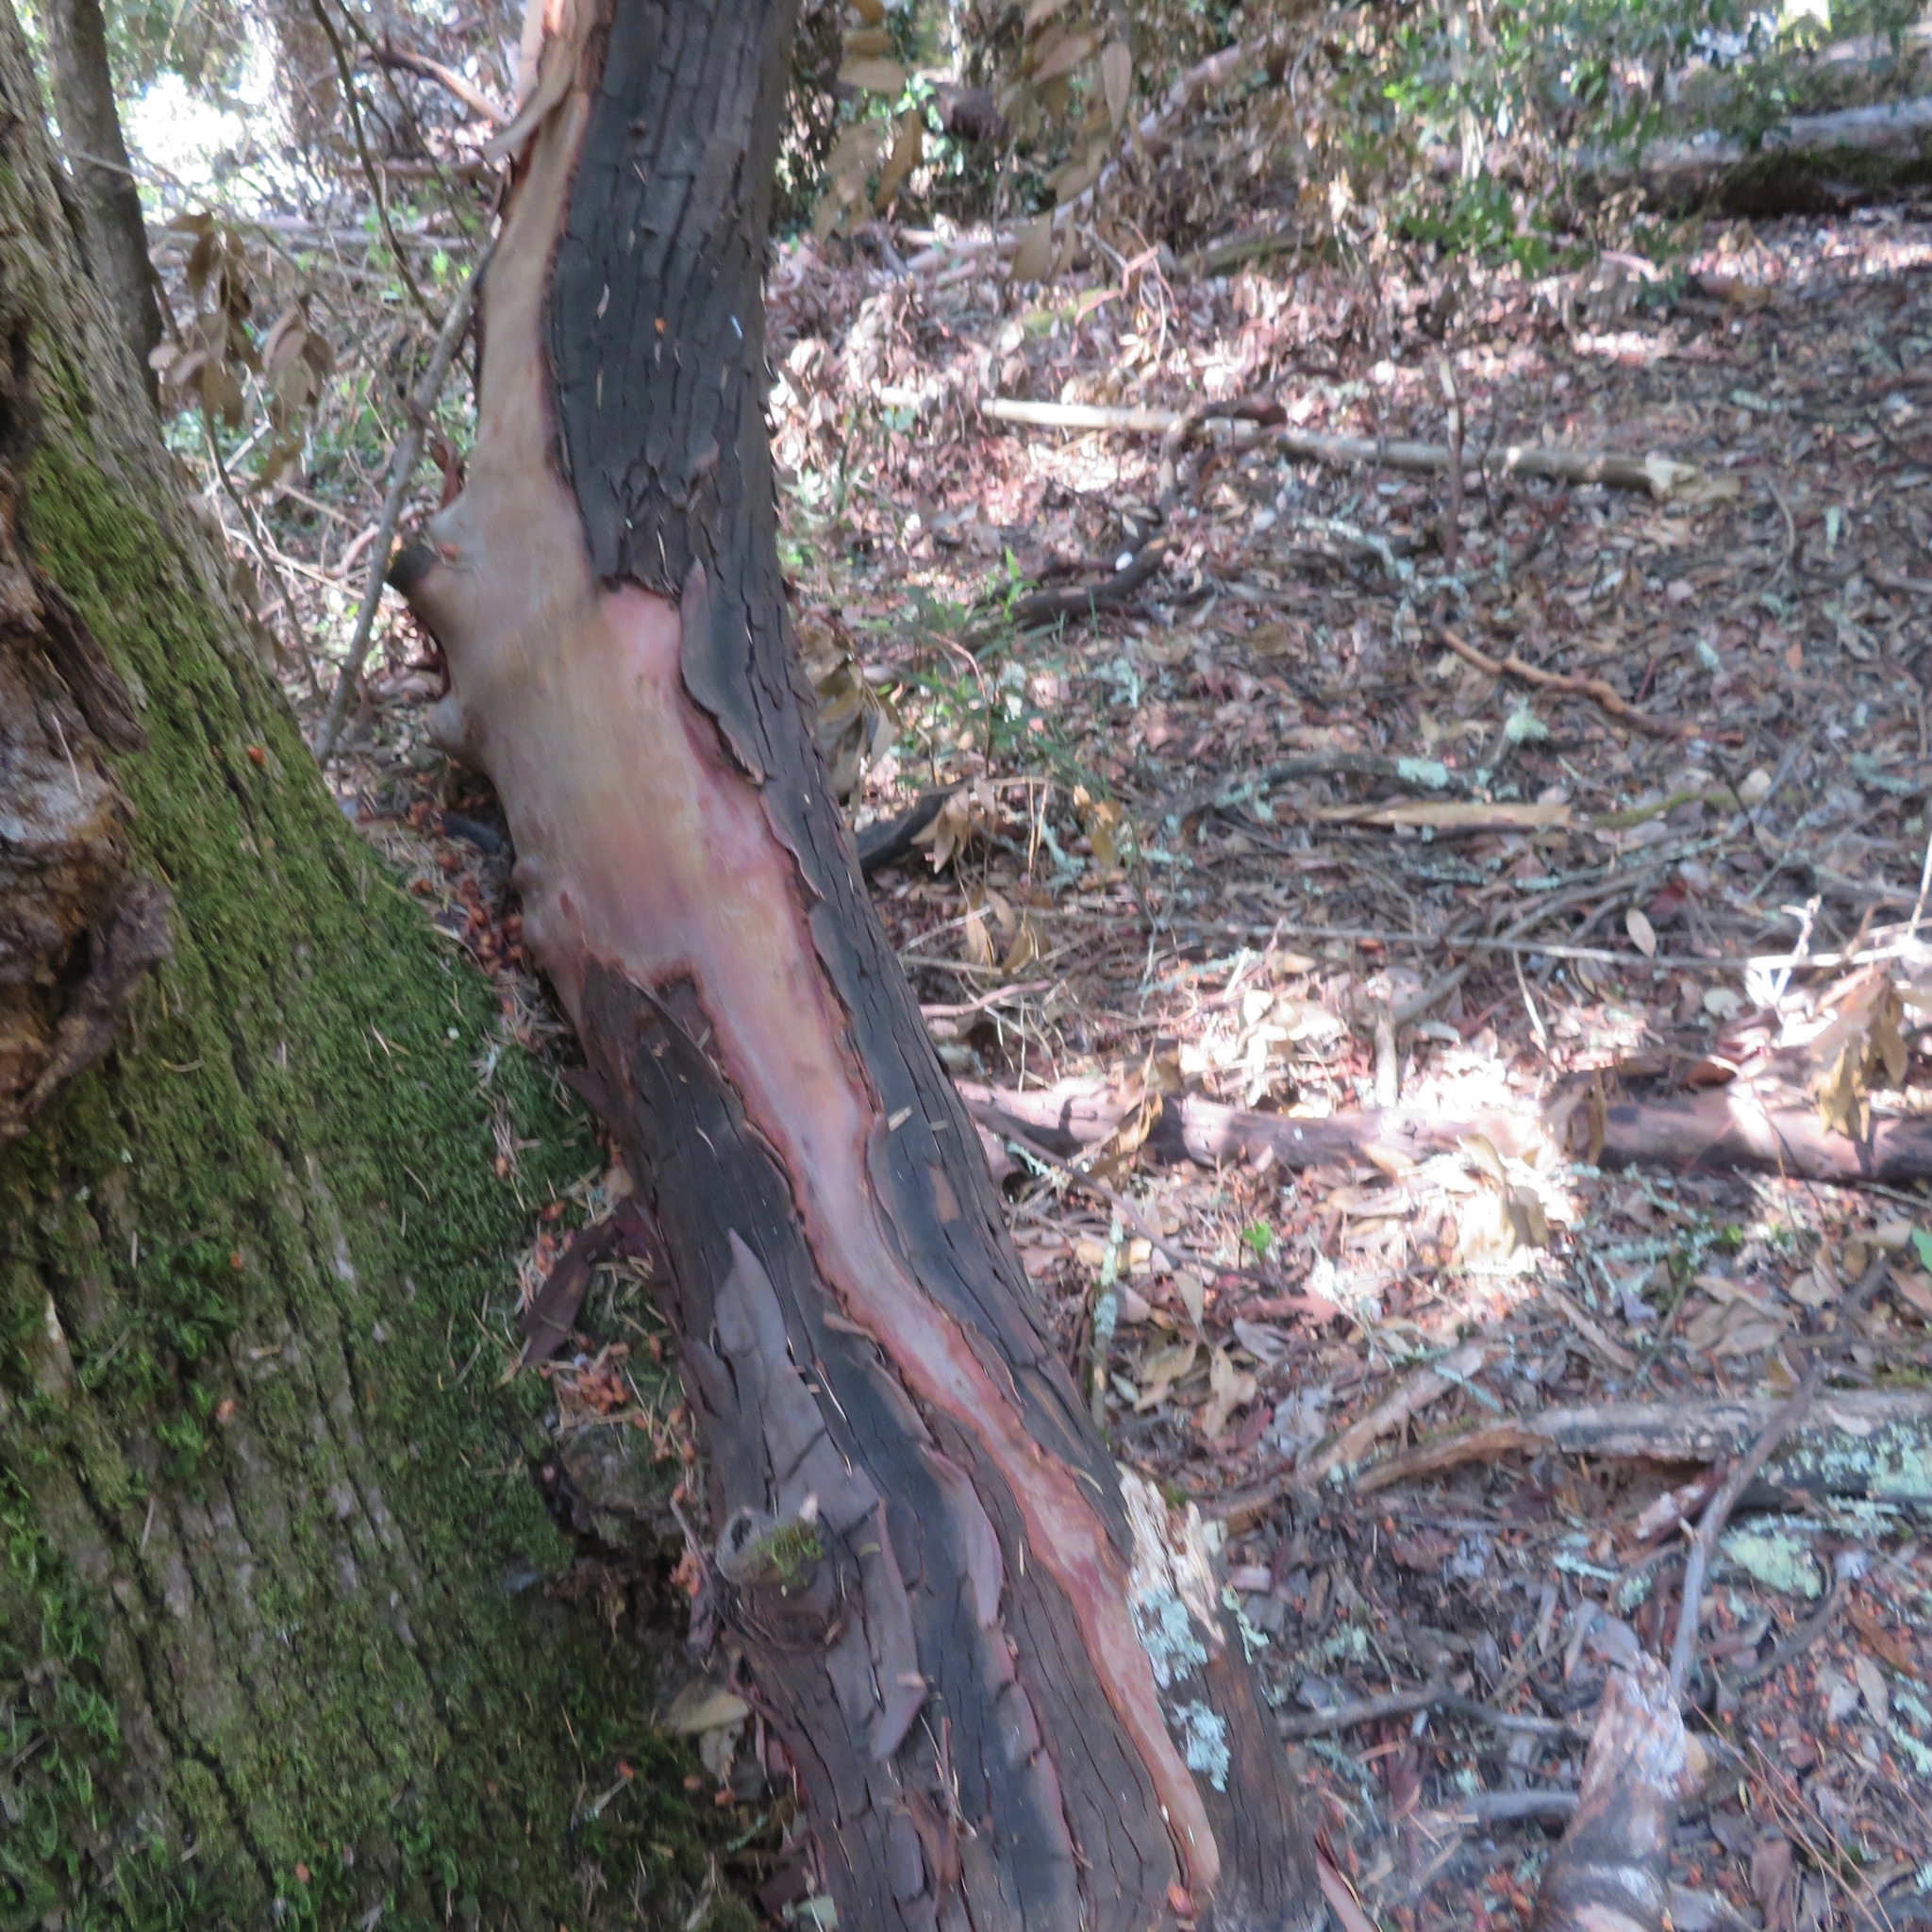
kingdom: Plantae
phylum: Tracheophyta
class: Magnoliopsida
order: Ericales
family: Ericaceae
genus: Arbutus
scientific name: Arbutus menziesii
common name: Pacific madrone
